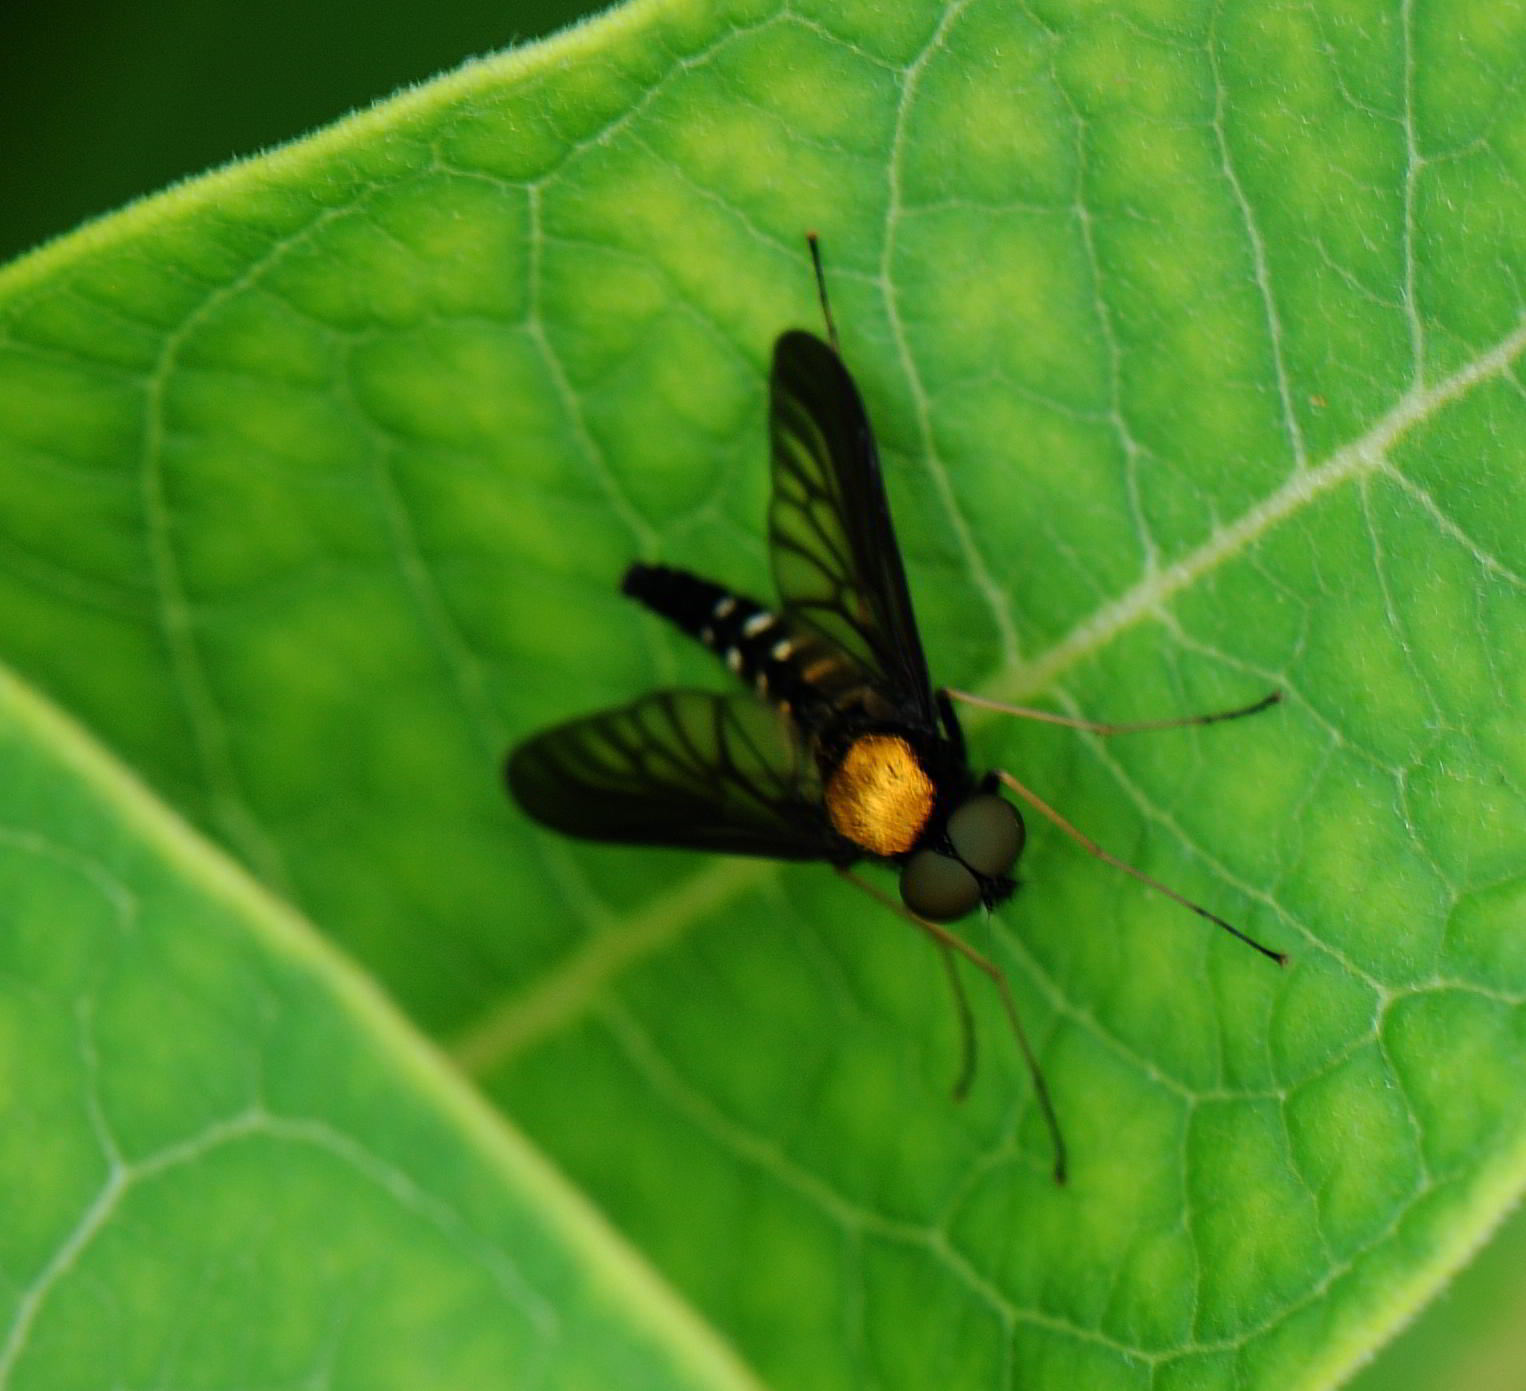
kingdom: Animalia
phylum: Arthropoda
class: Insecta
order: Diptera
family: Rhagionidae
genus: Chrysopilus
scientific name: Chrysopilus thoracicus
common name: Golden-backed snipe fly
